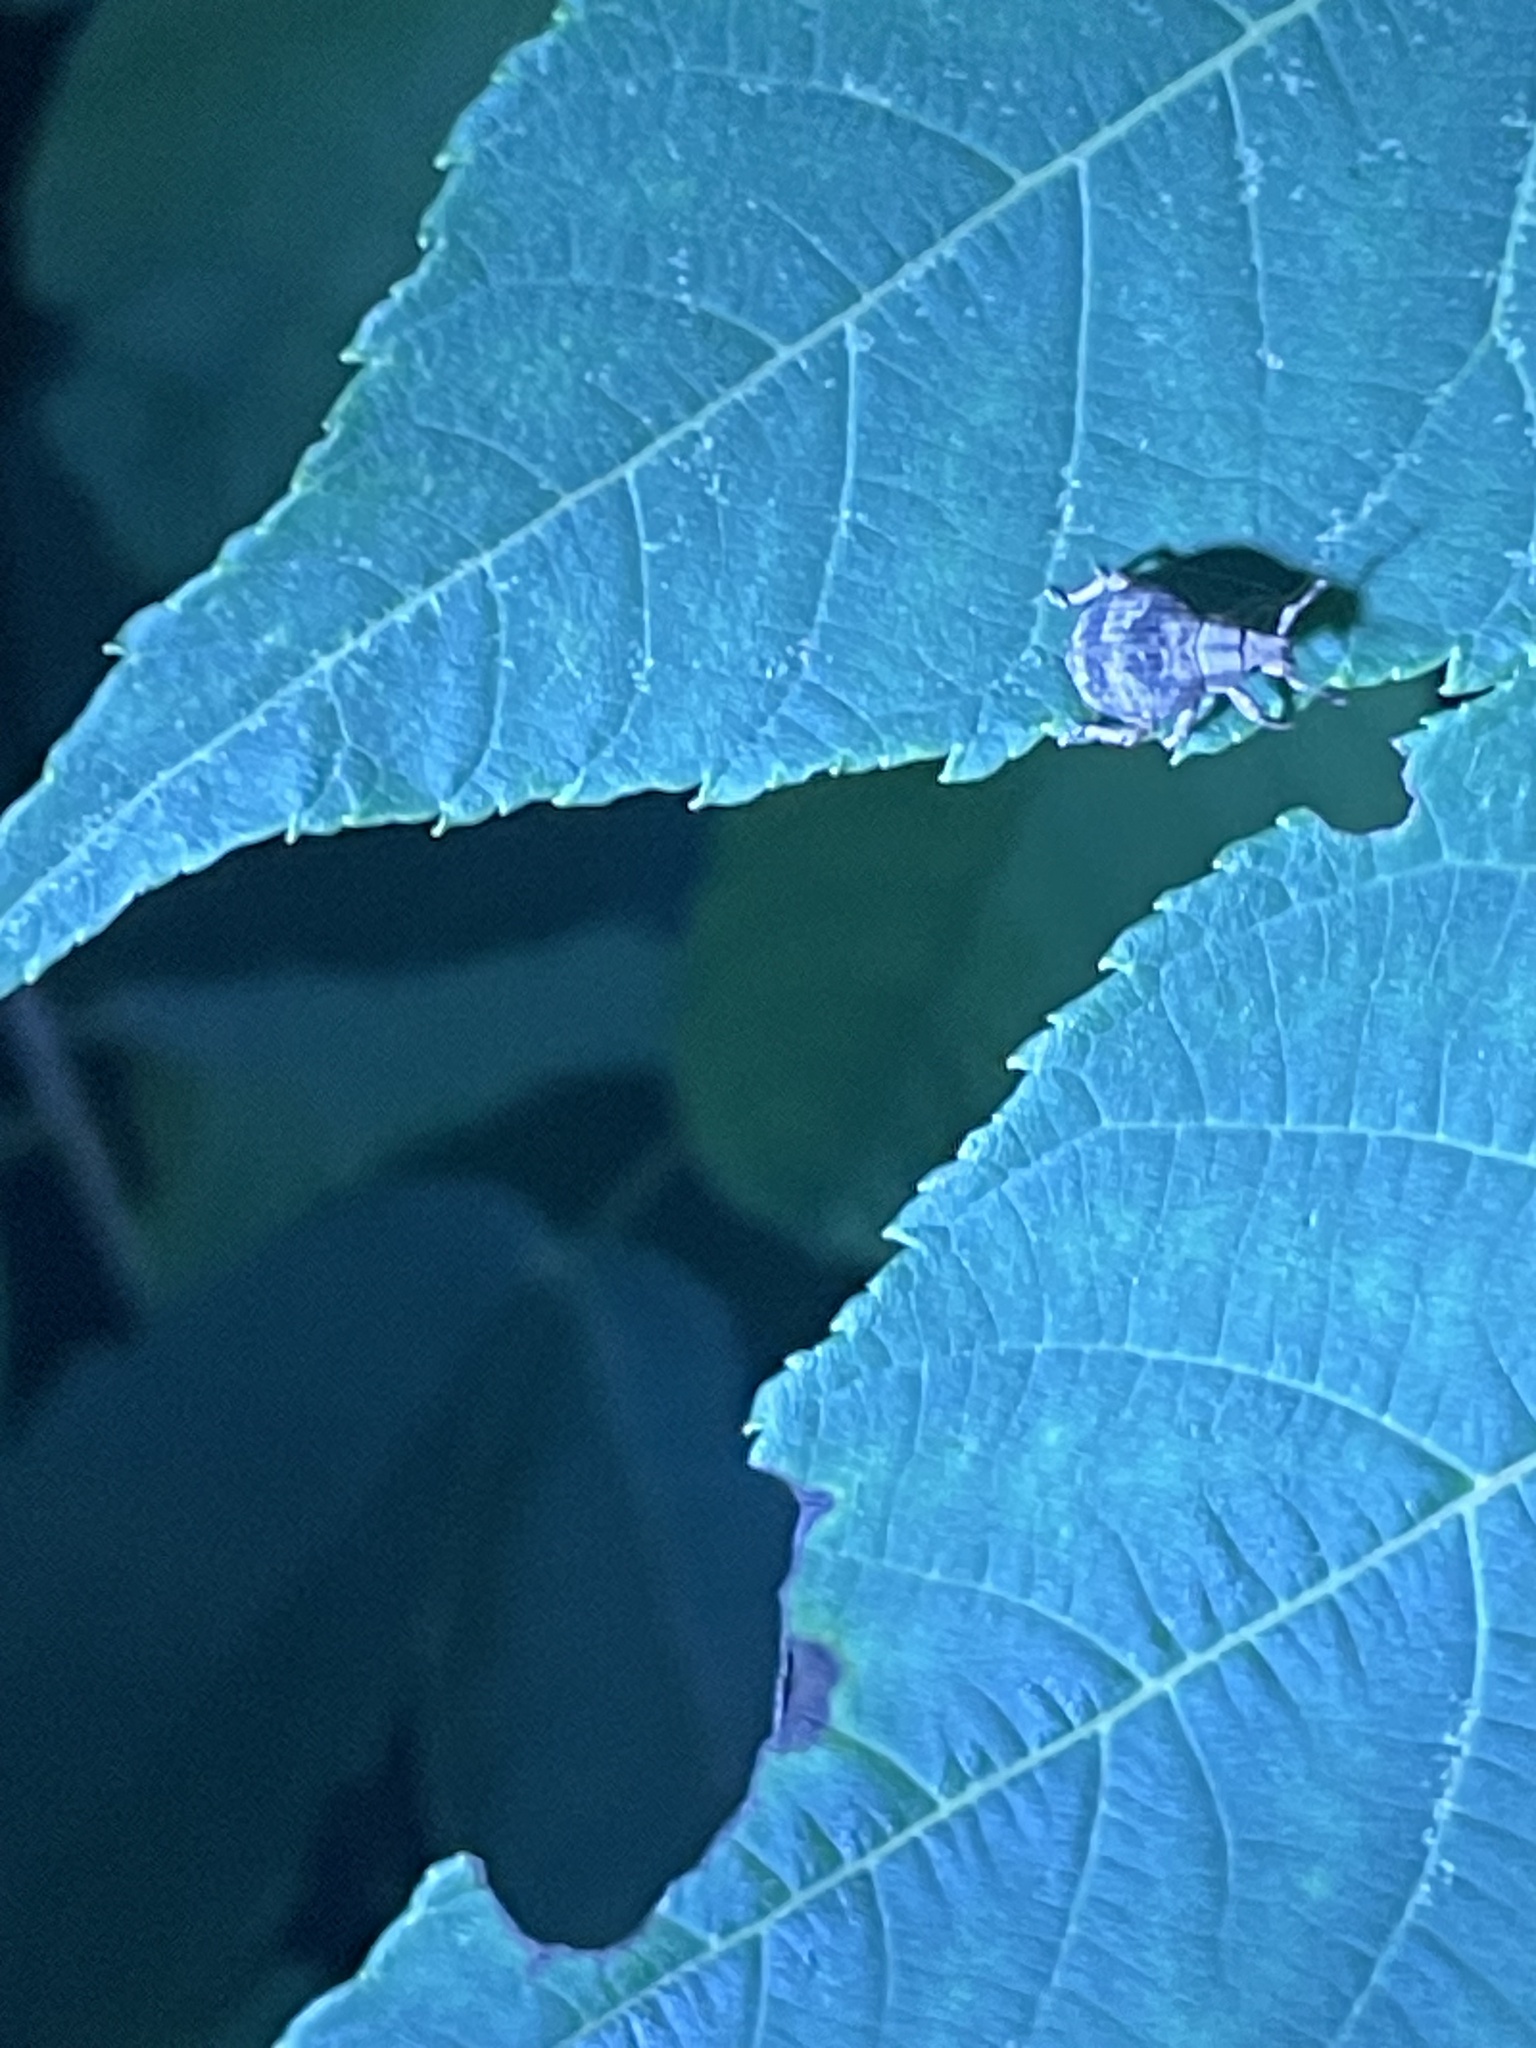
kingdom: Animalia
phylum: Arthropoda
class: Insecta
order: Coleoptera
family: Curculionidae
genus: Pseudocneorhinus
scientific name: Pseudocneorhinus bifasciatus
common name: Two-banded japanese weevil
